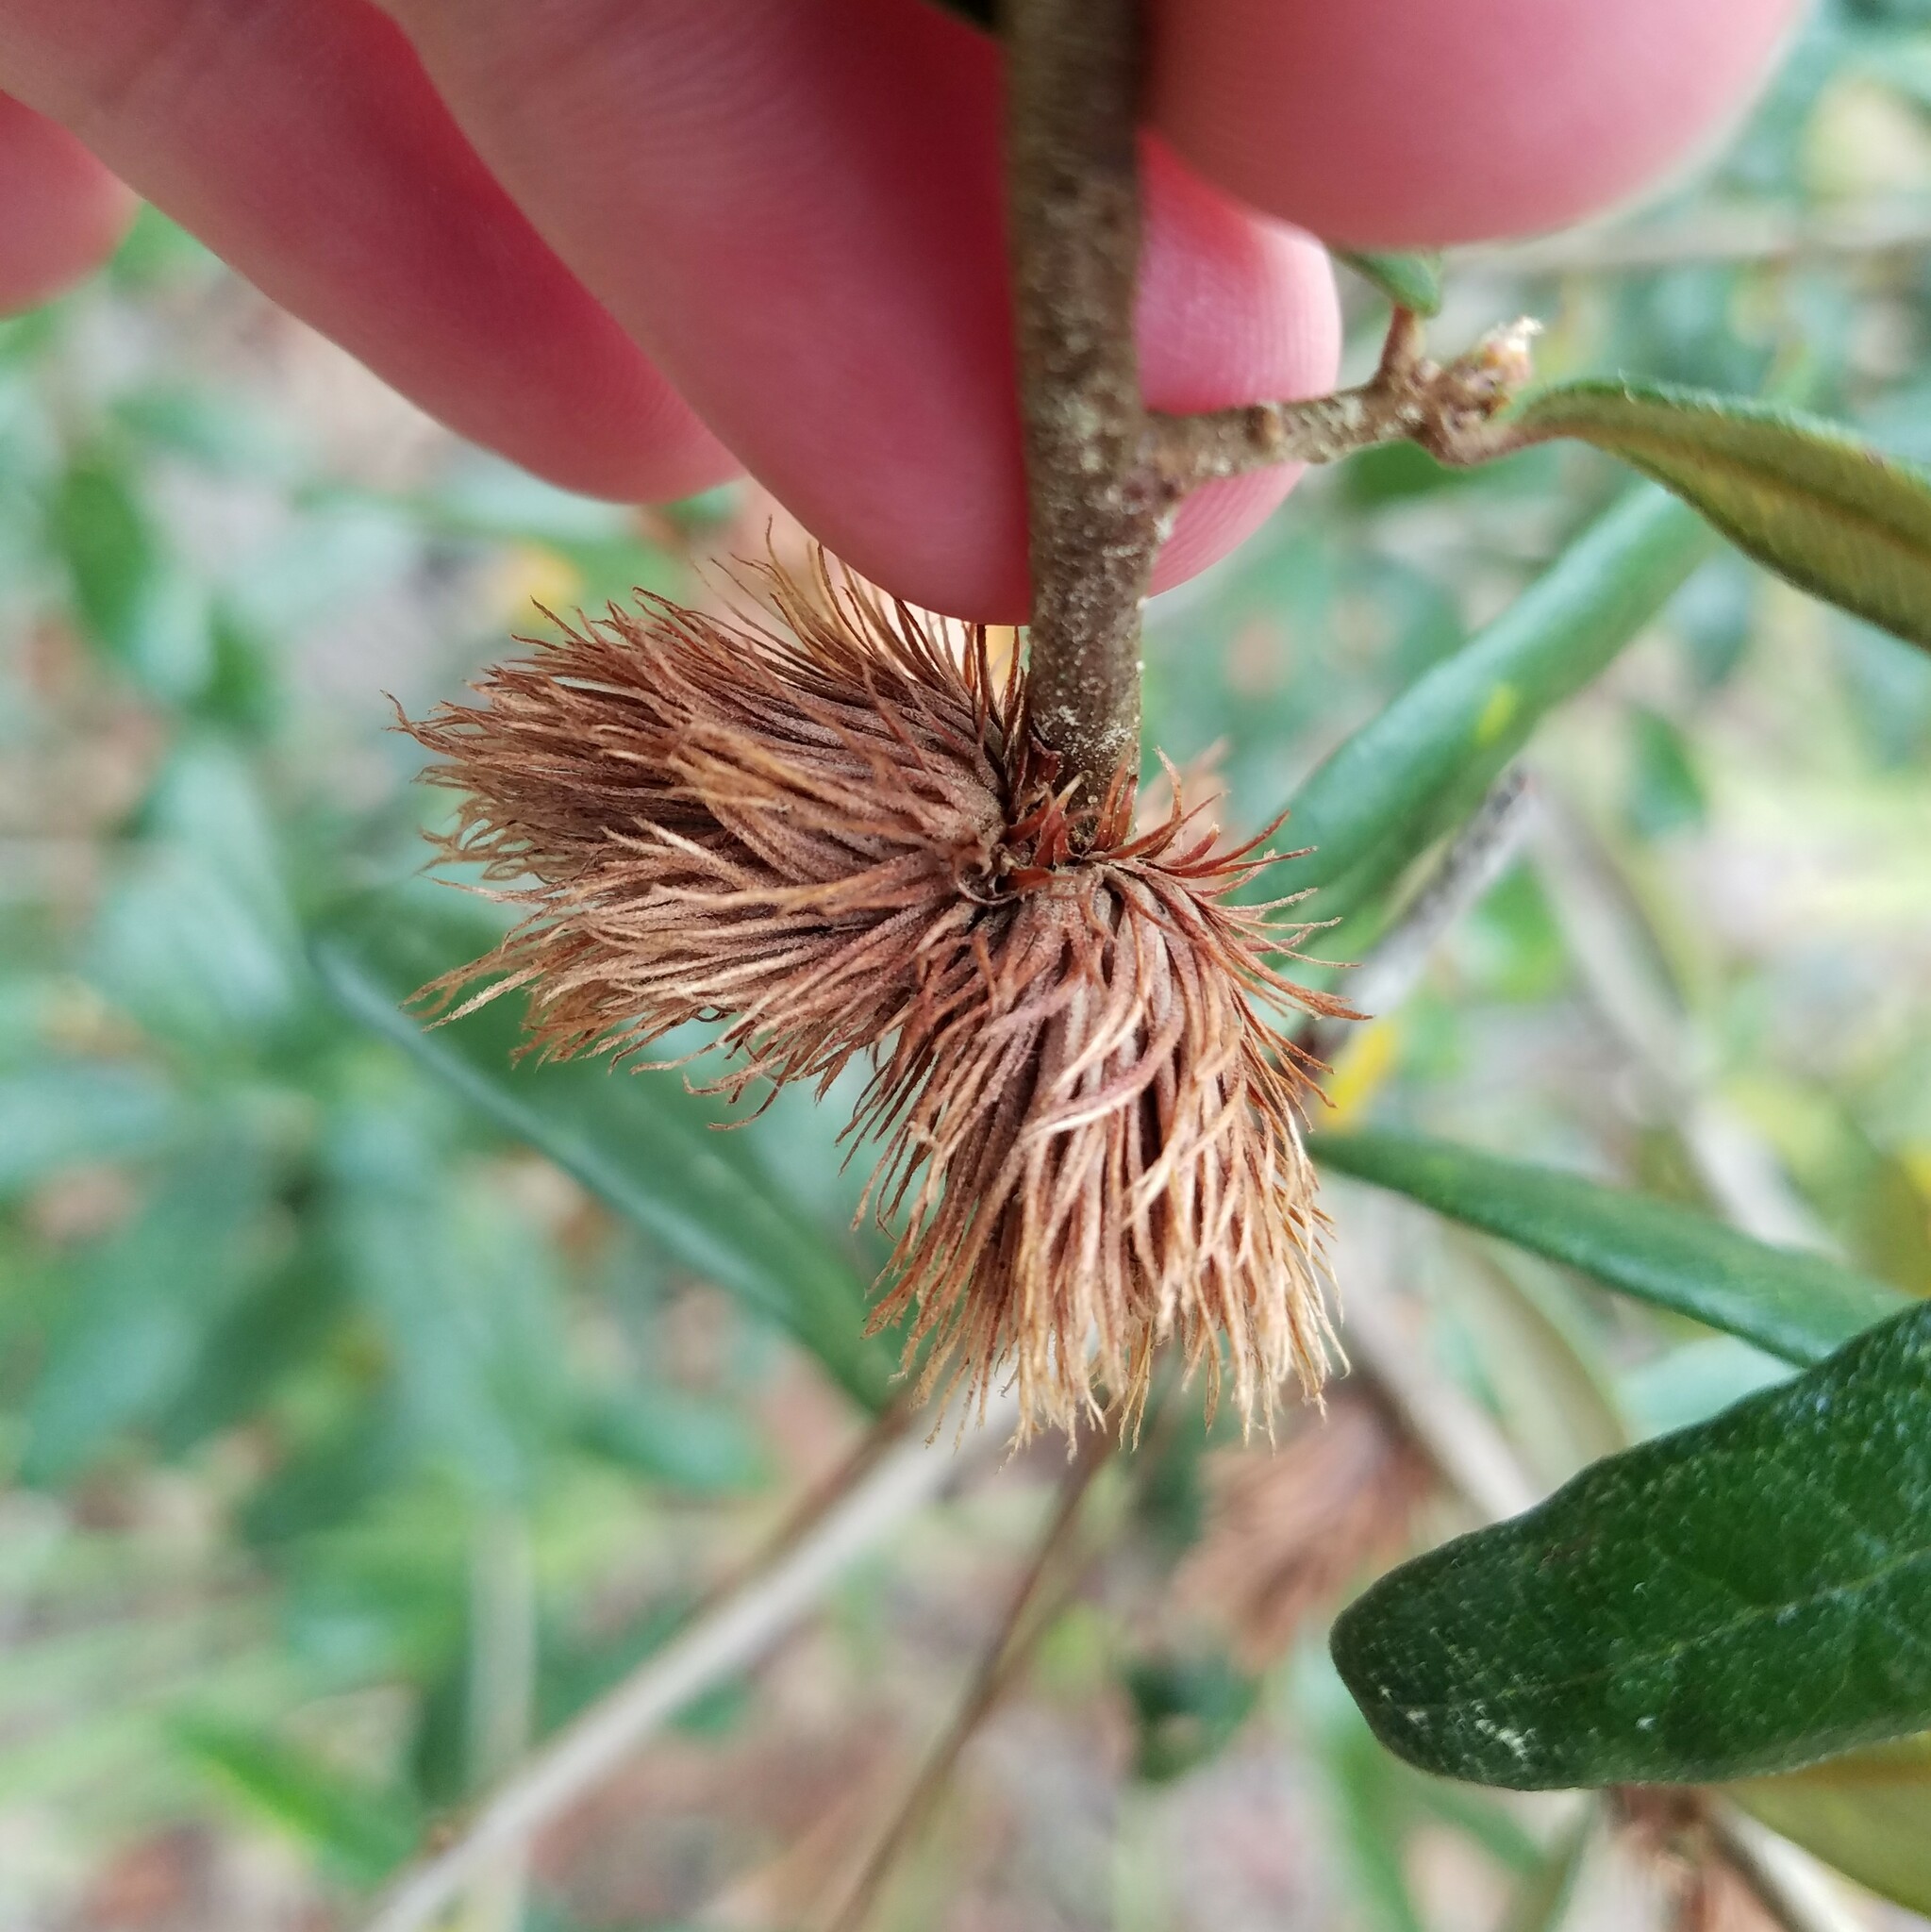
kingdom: Animalia
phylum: Arthropoda
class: Insecta
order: Hymenoptera
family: Cynipidae
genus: Andricus
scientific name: Andricus quercusfoliatus
